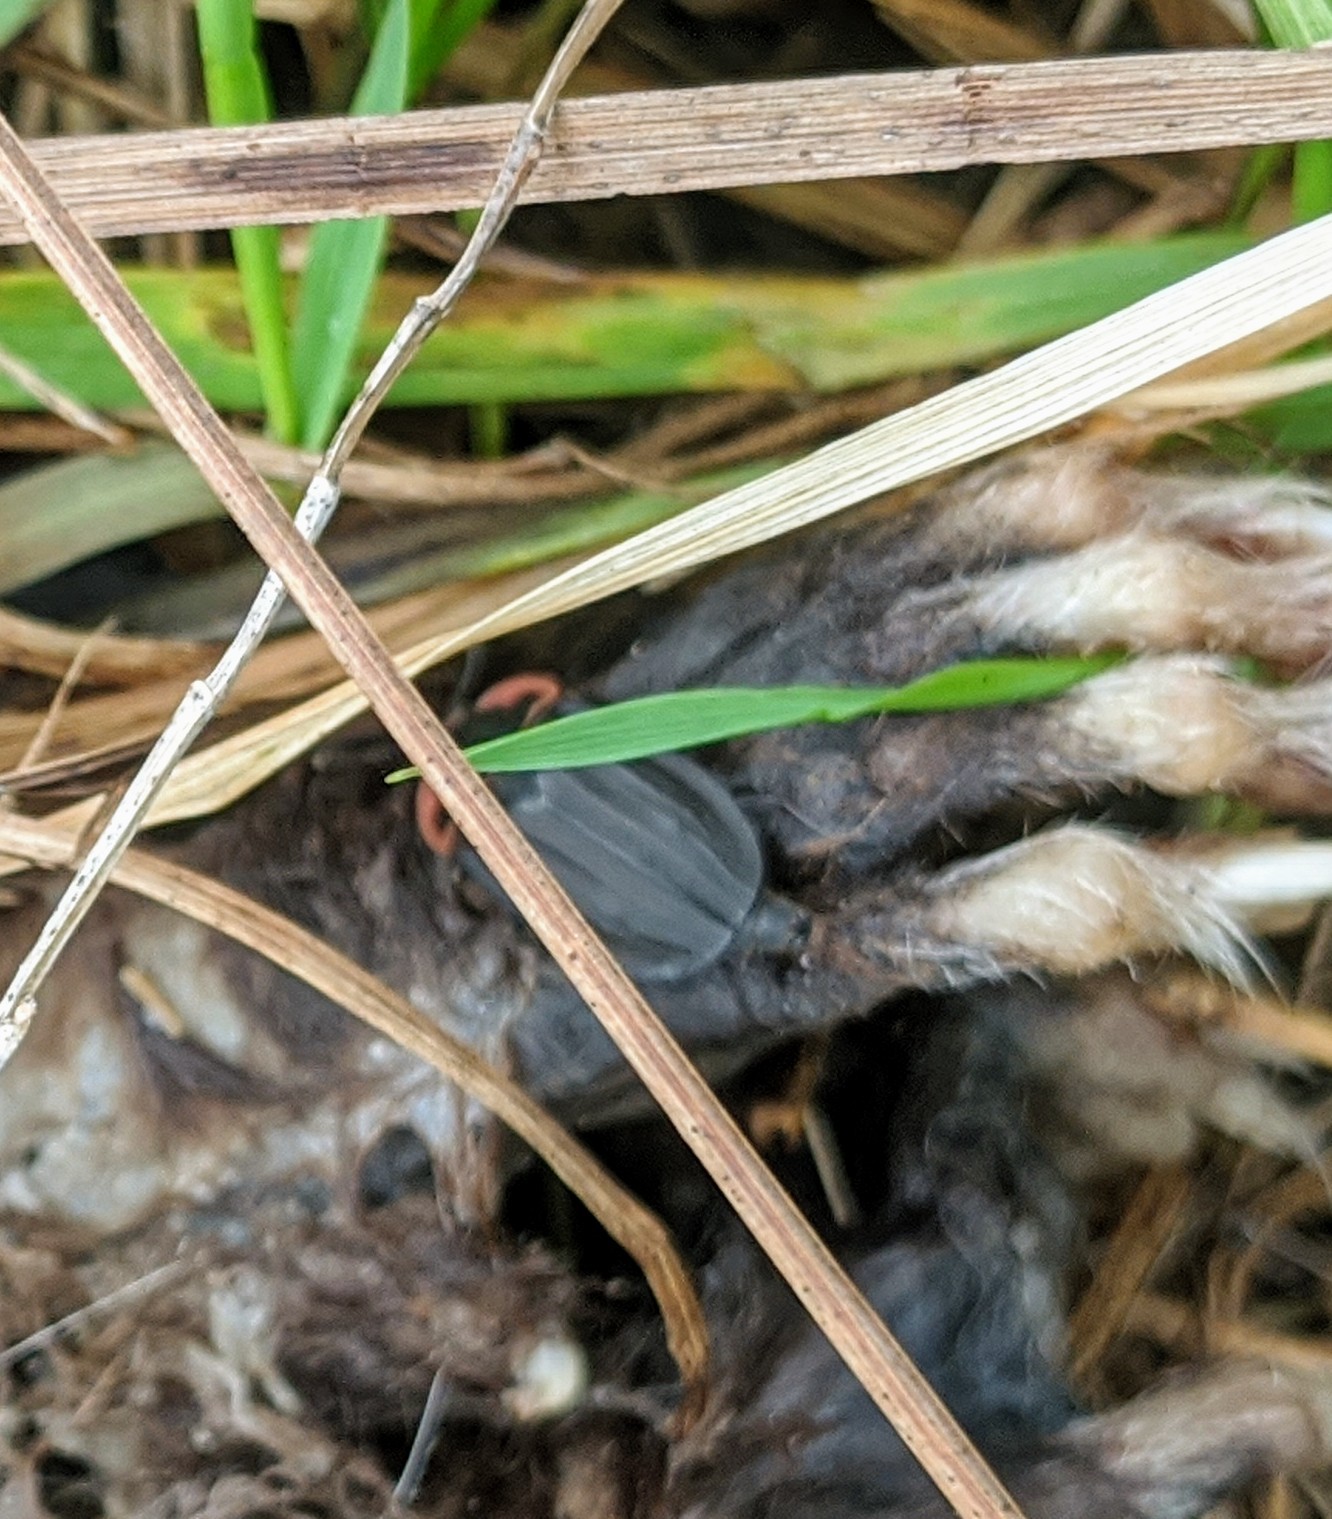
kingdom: Animalia
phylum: Arthropoda
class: Insecta
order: Coleoptera
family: Staphylinidae
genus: Oiceoptoma
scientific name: Oiceoptoma noveboracense
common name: Margined carrion beetle
